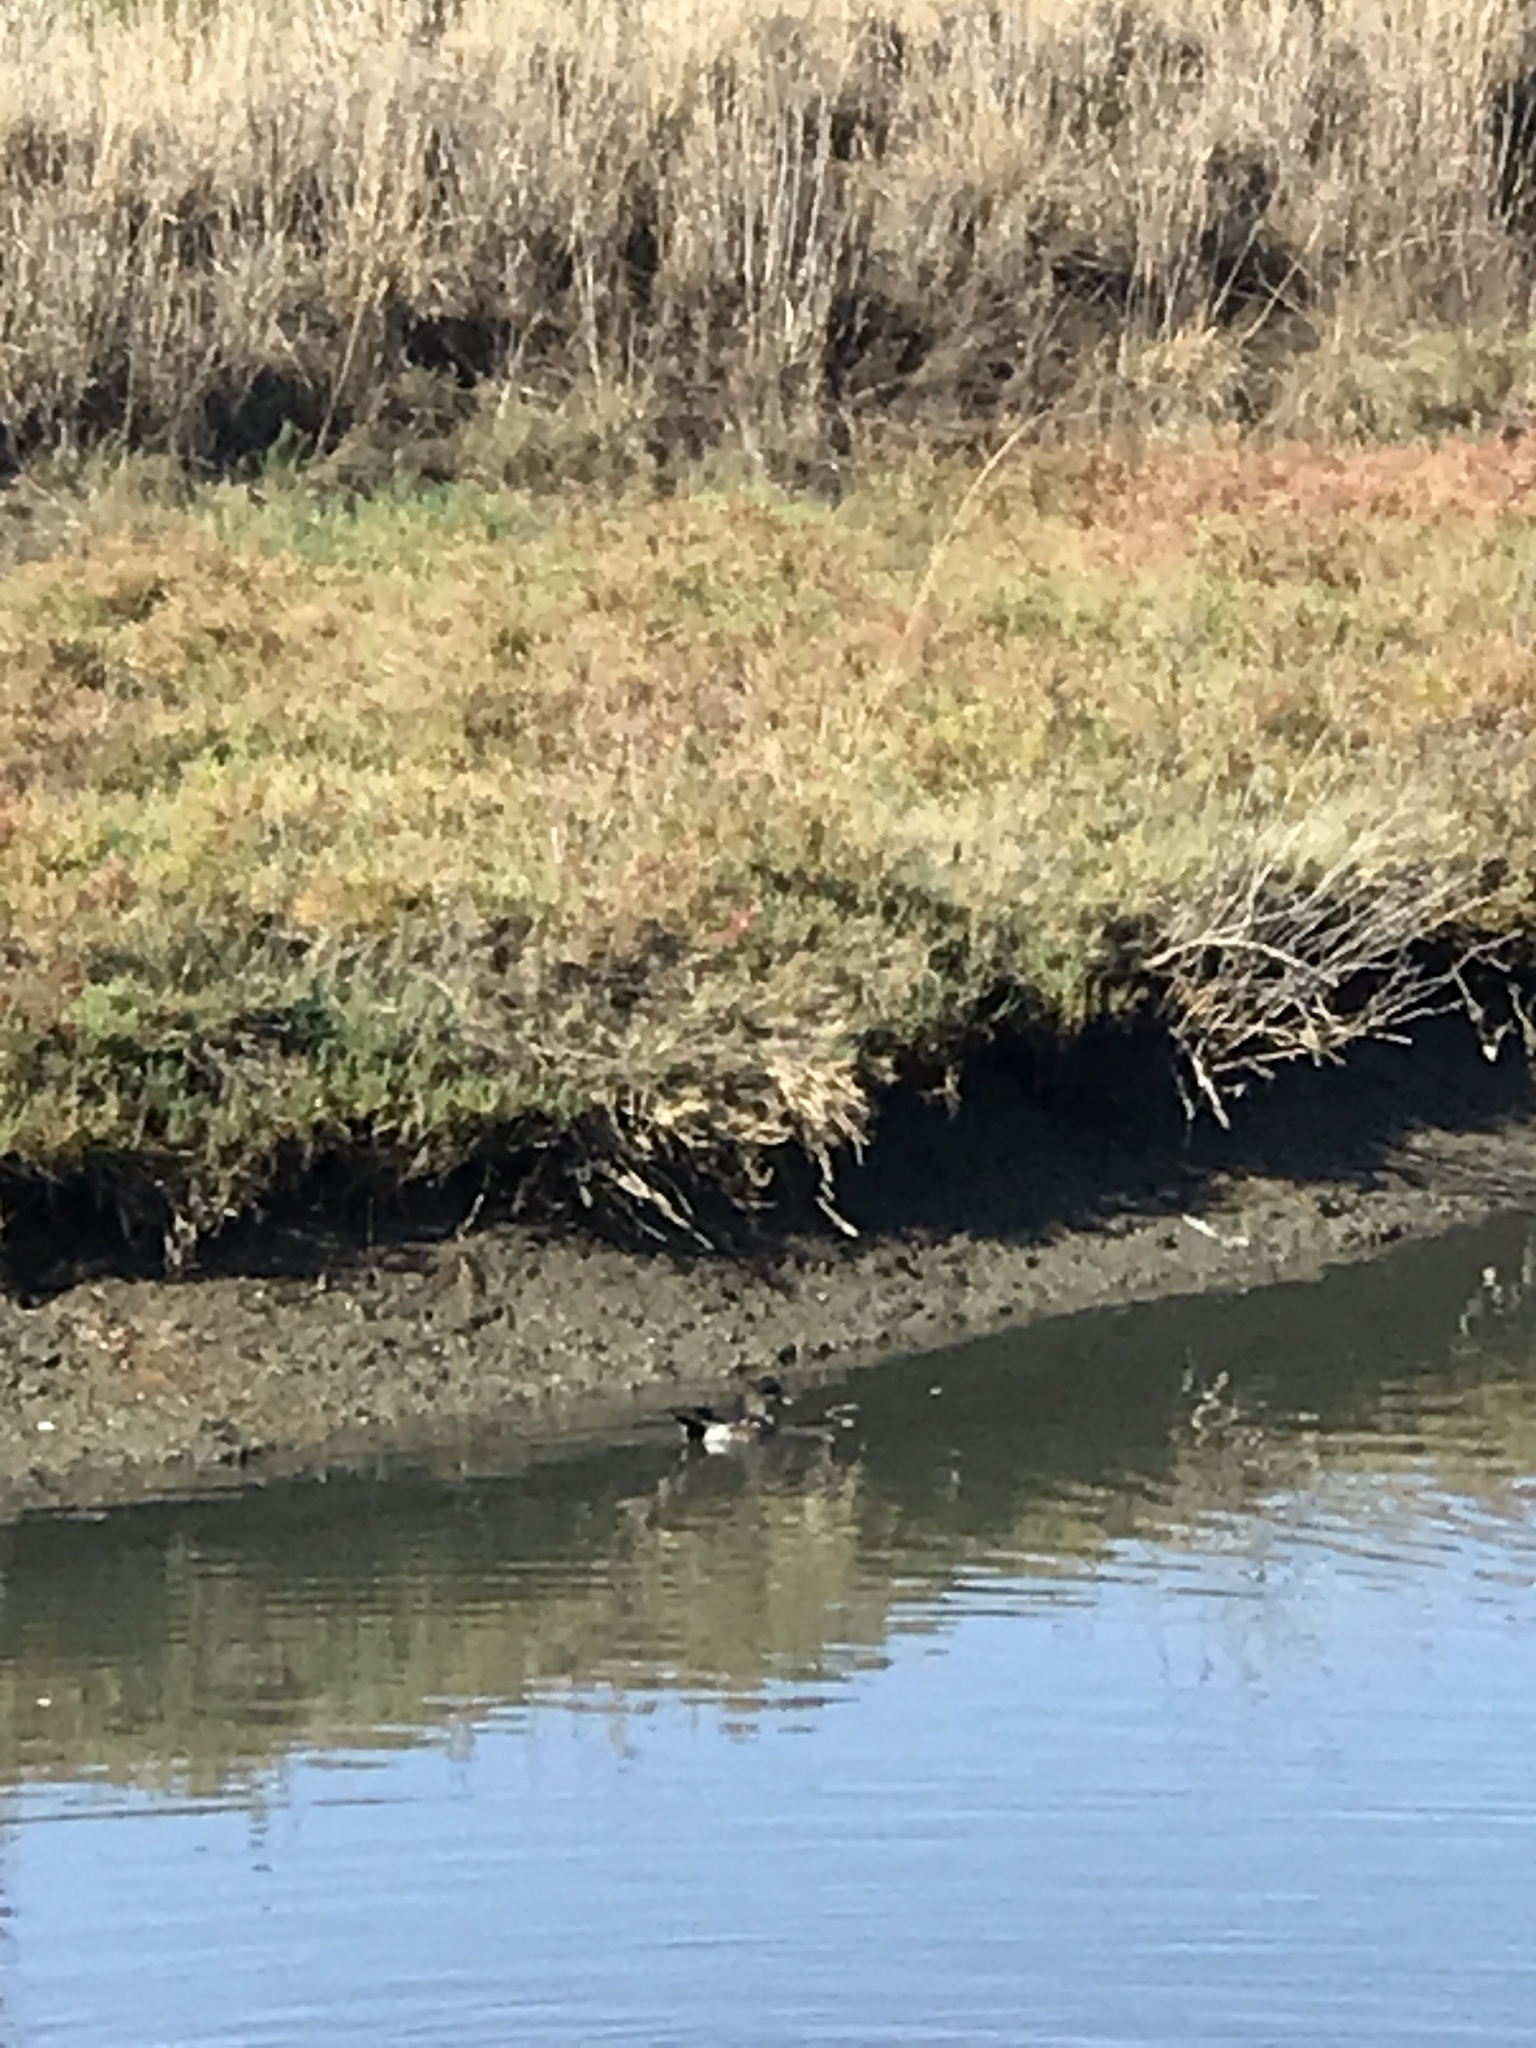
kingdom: Animalia
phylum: Chordata
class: Aves
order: Anseriformes
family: Anatidae
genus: Mareca
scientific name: Mareca americana
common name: American wigeon
